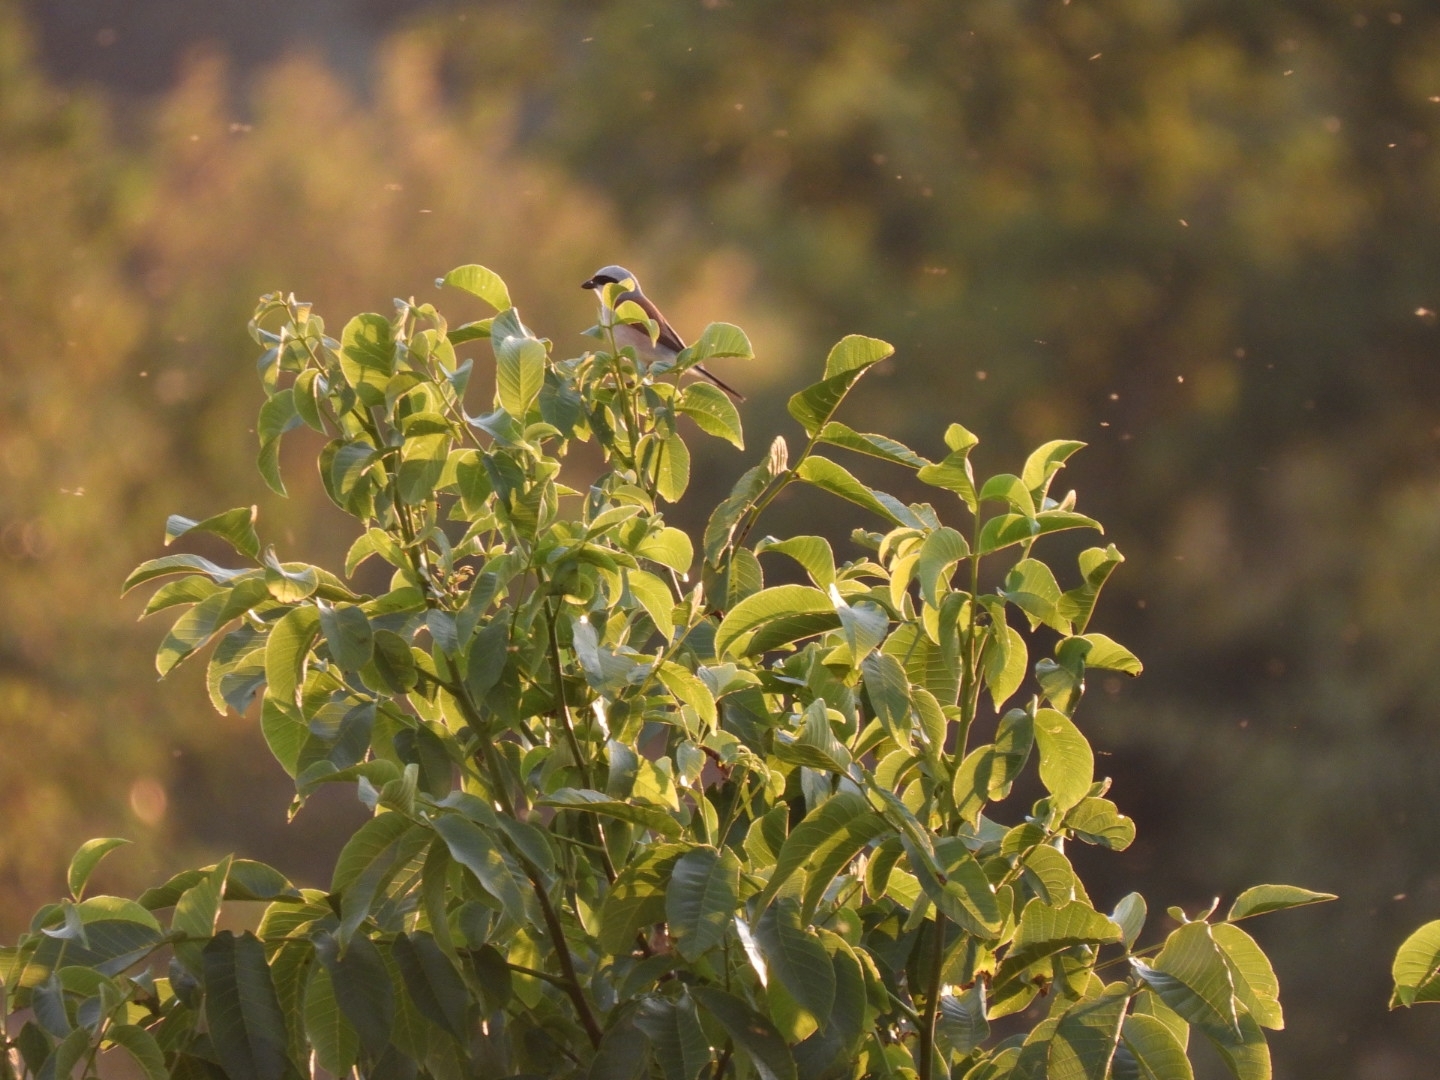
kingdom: Animalia
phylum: Chordata
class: Aves
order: Passeriformes
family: Laniidae
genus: Lanius
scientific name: Lanius collurio
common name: Red-backed shrike
